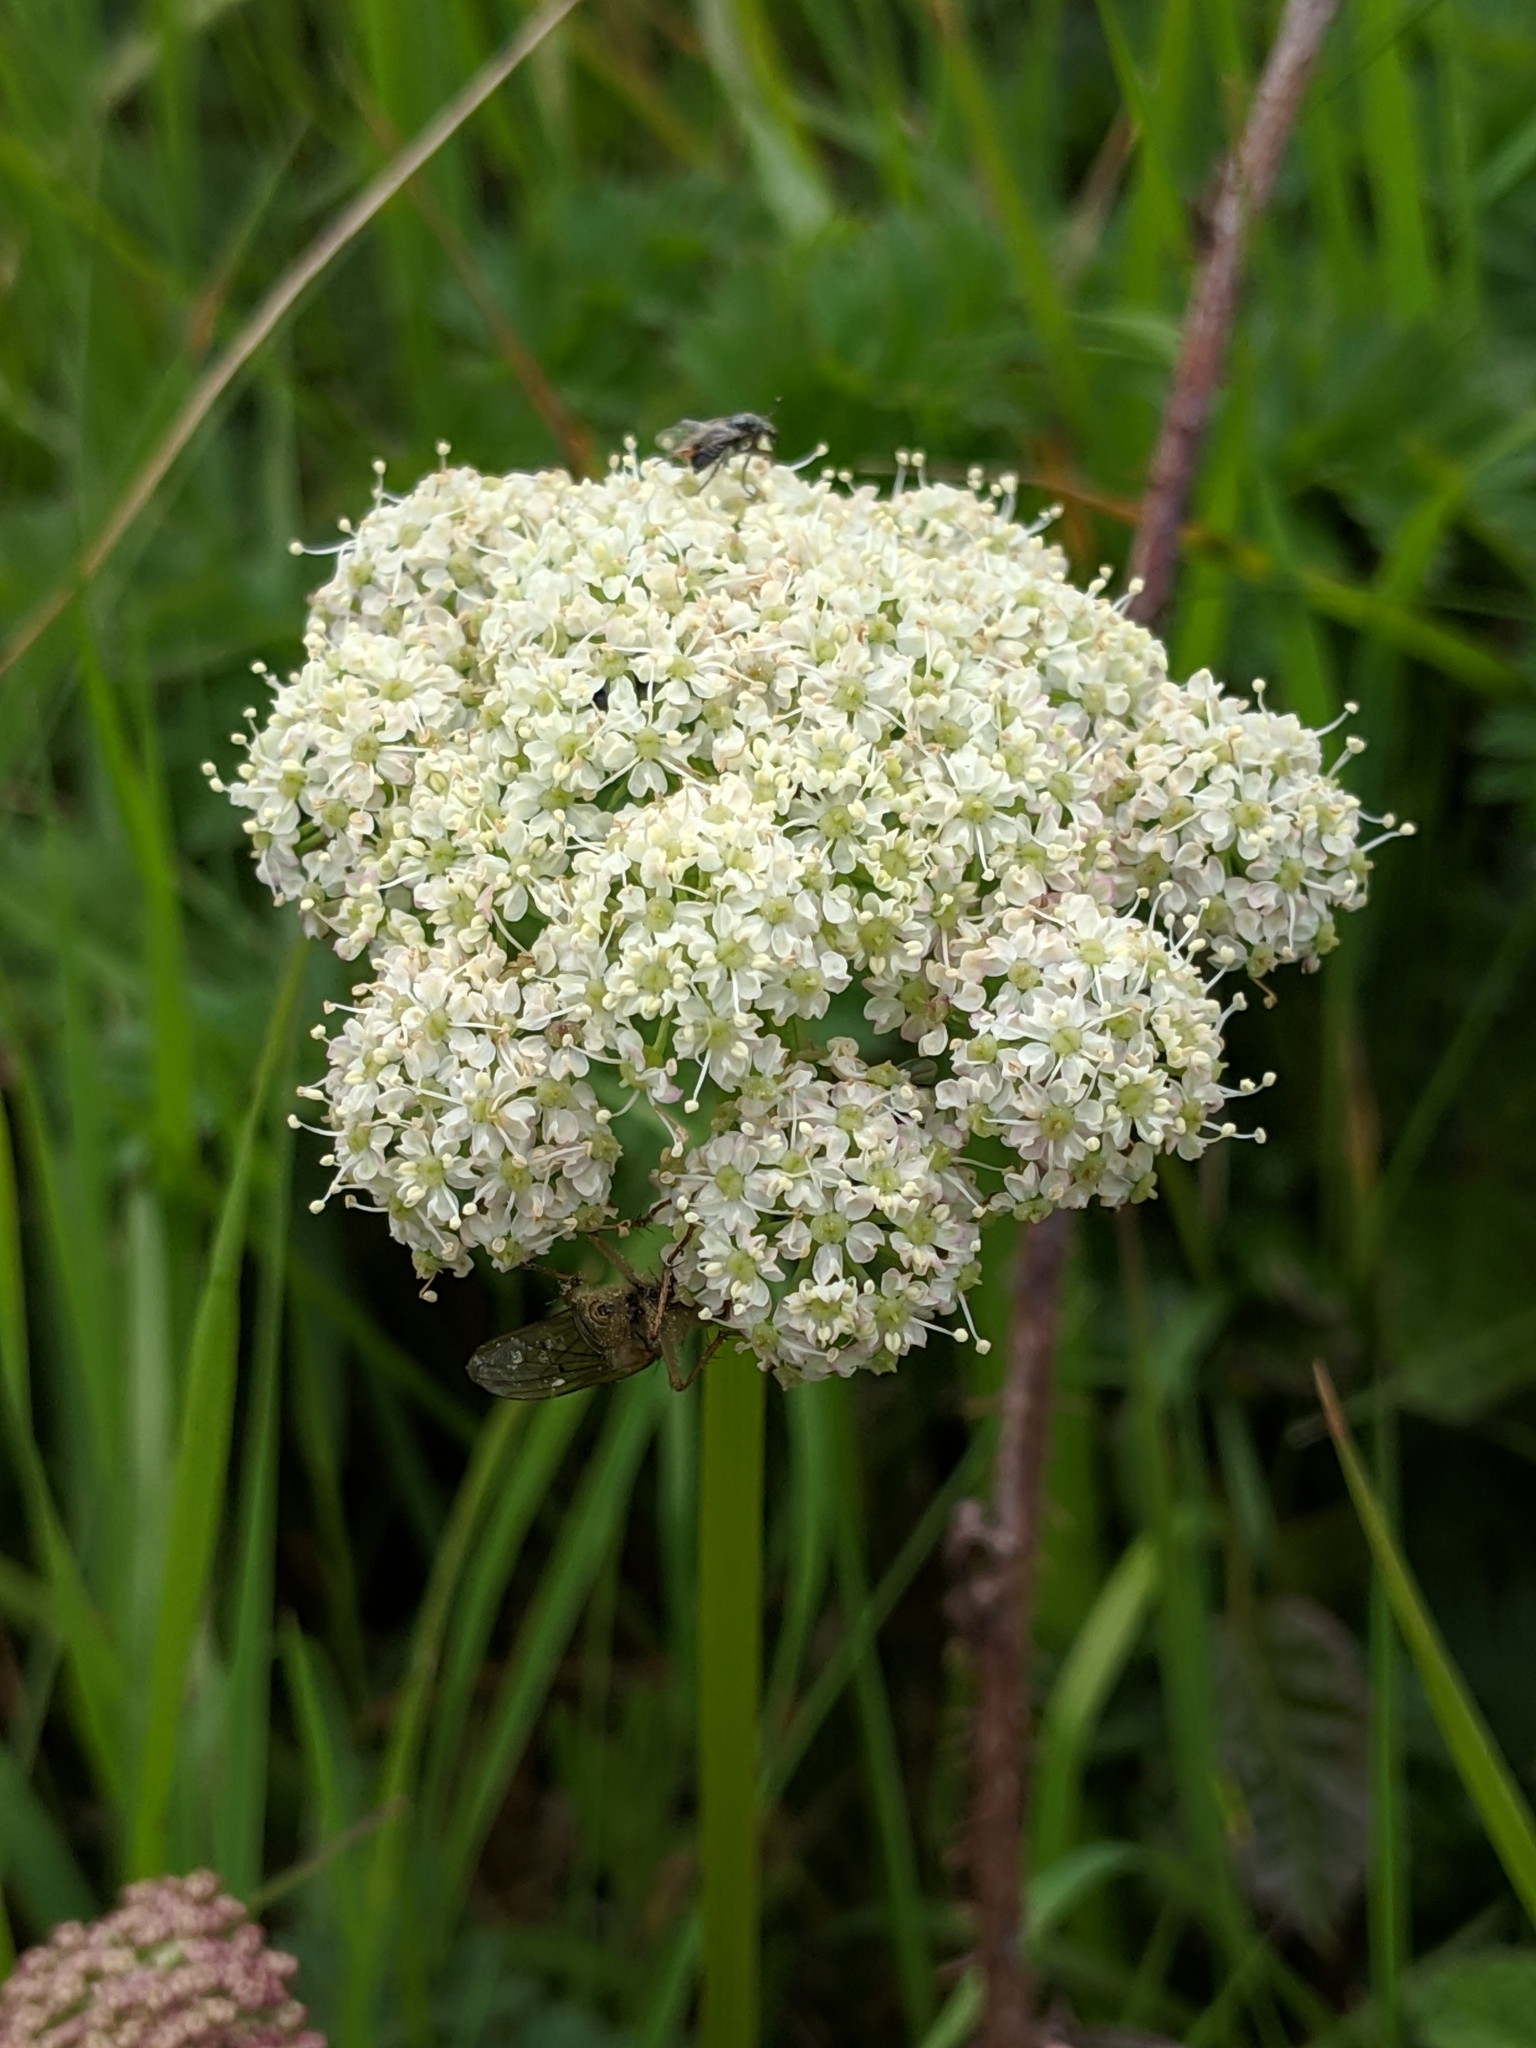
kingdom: Plantae
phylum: Tracheophyta
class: Magnoliopsida
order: Apiales
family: Apiaceae
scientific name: Apiaceae
